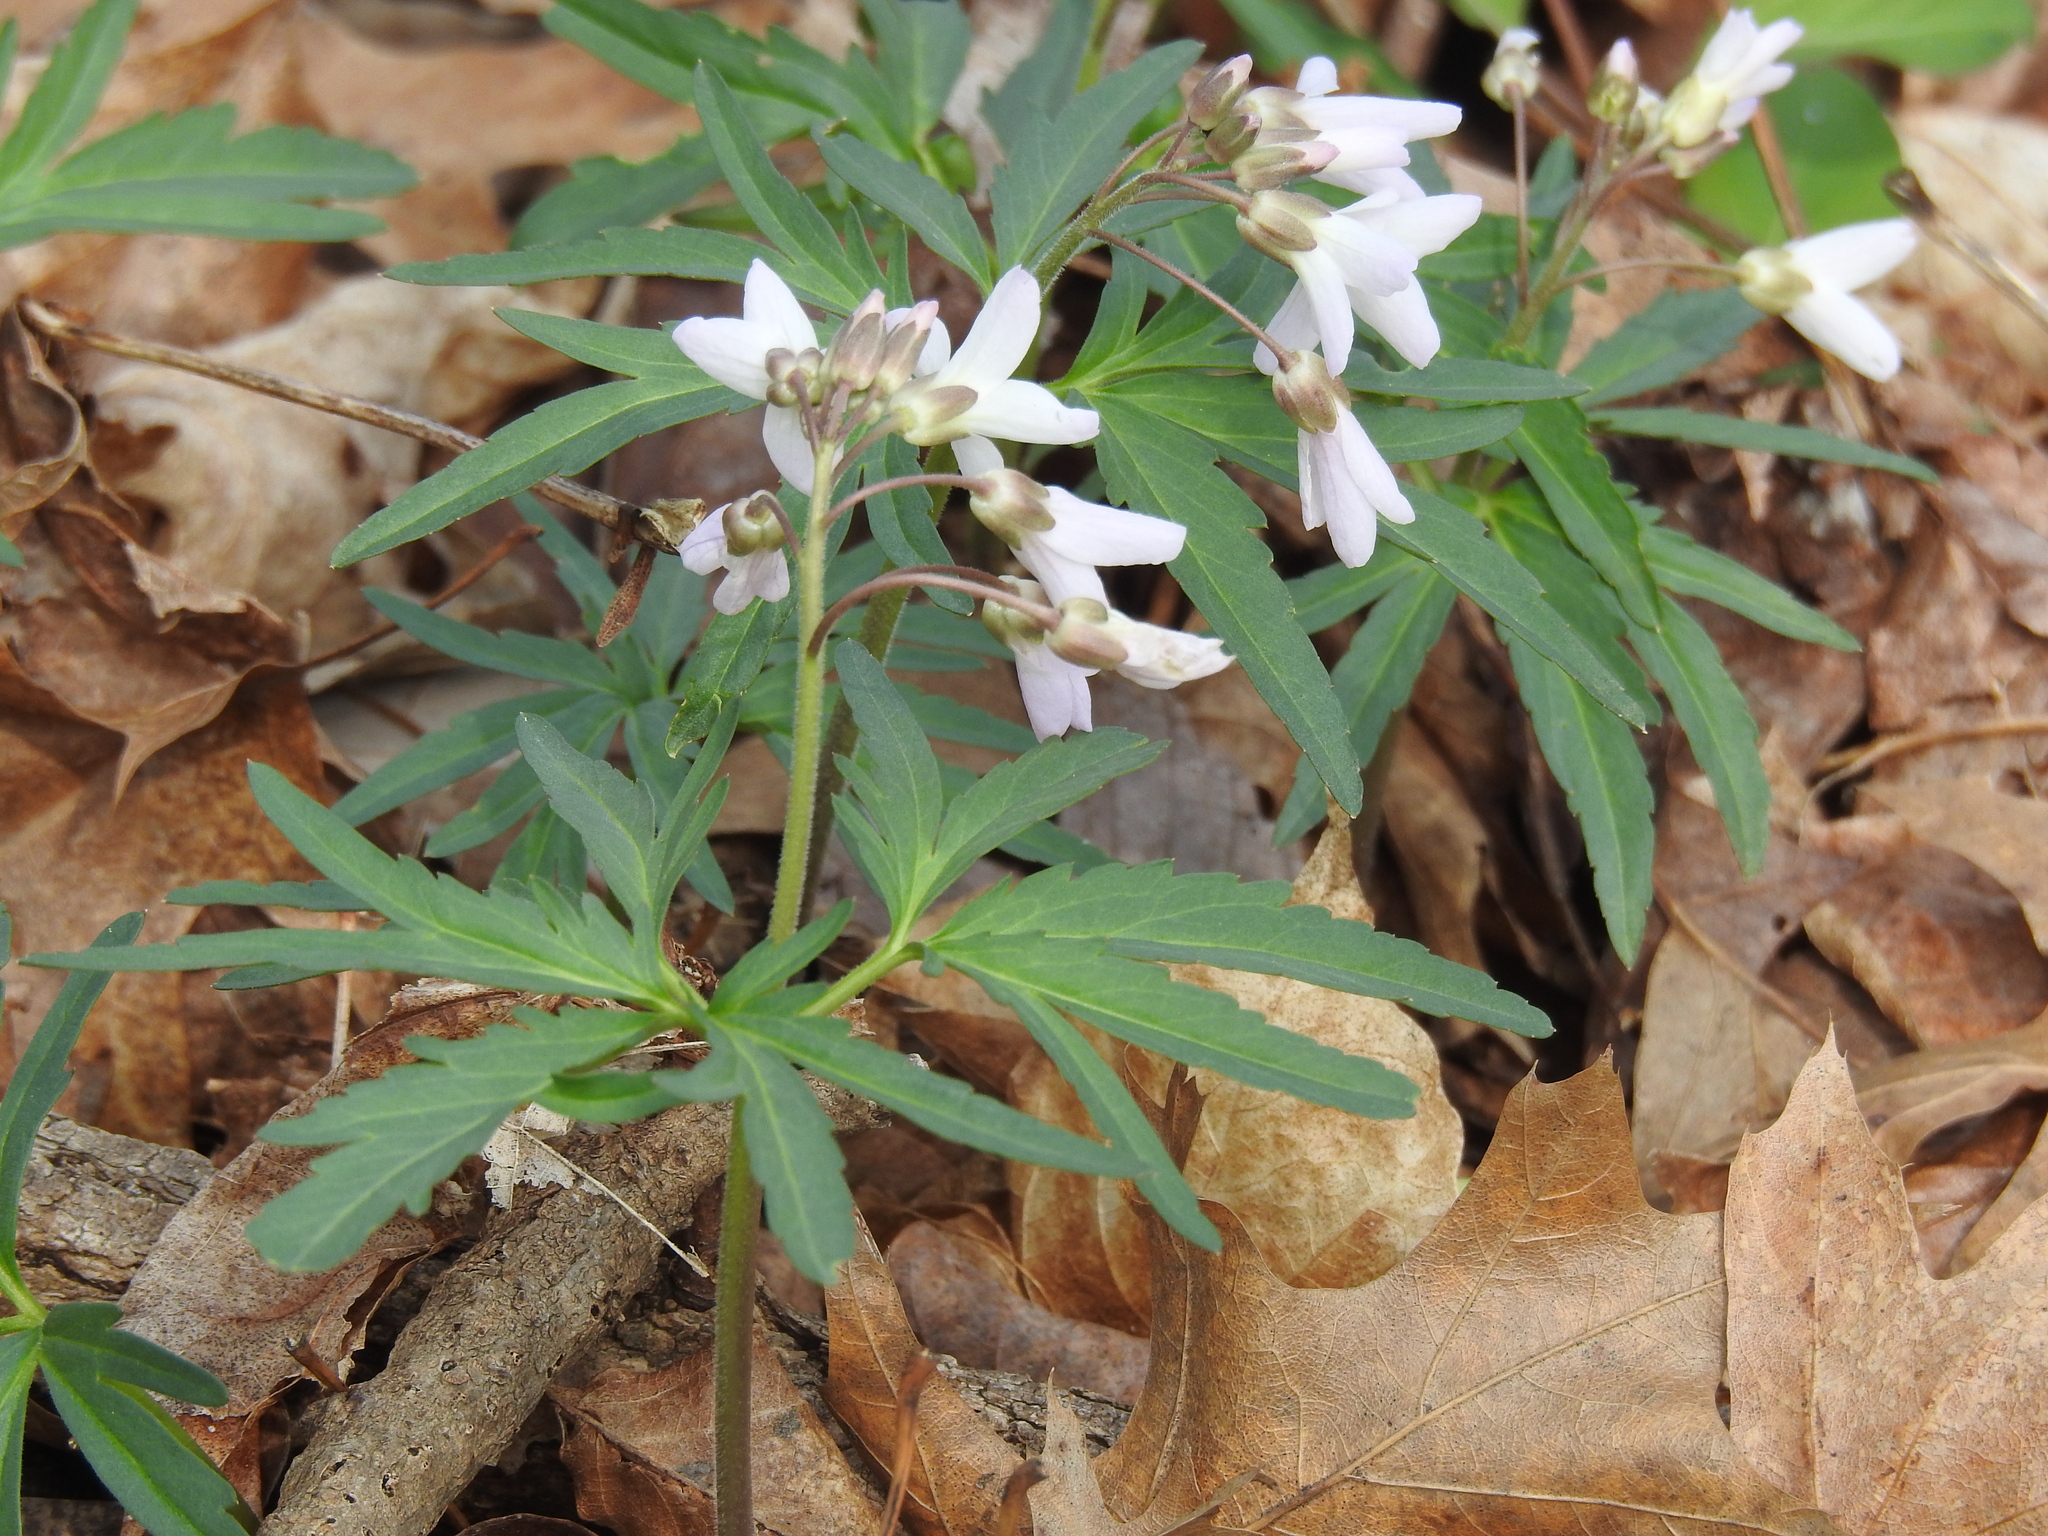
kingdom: Plantae
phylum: Tracheophyta
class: Magnoliopsida
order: Brassicales
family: Brassicaceae
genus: Cardamine
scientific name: Cardamine concatenata
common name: Cut-leaf toothcup
